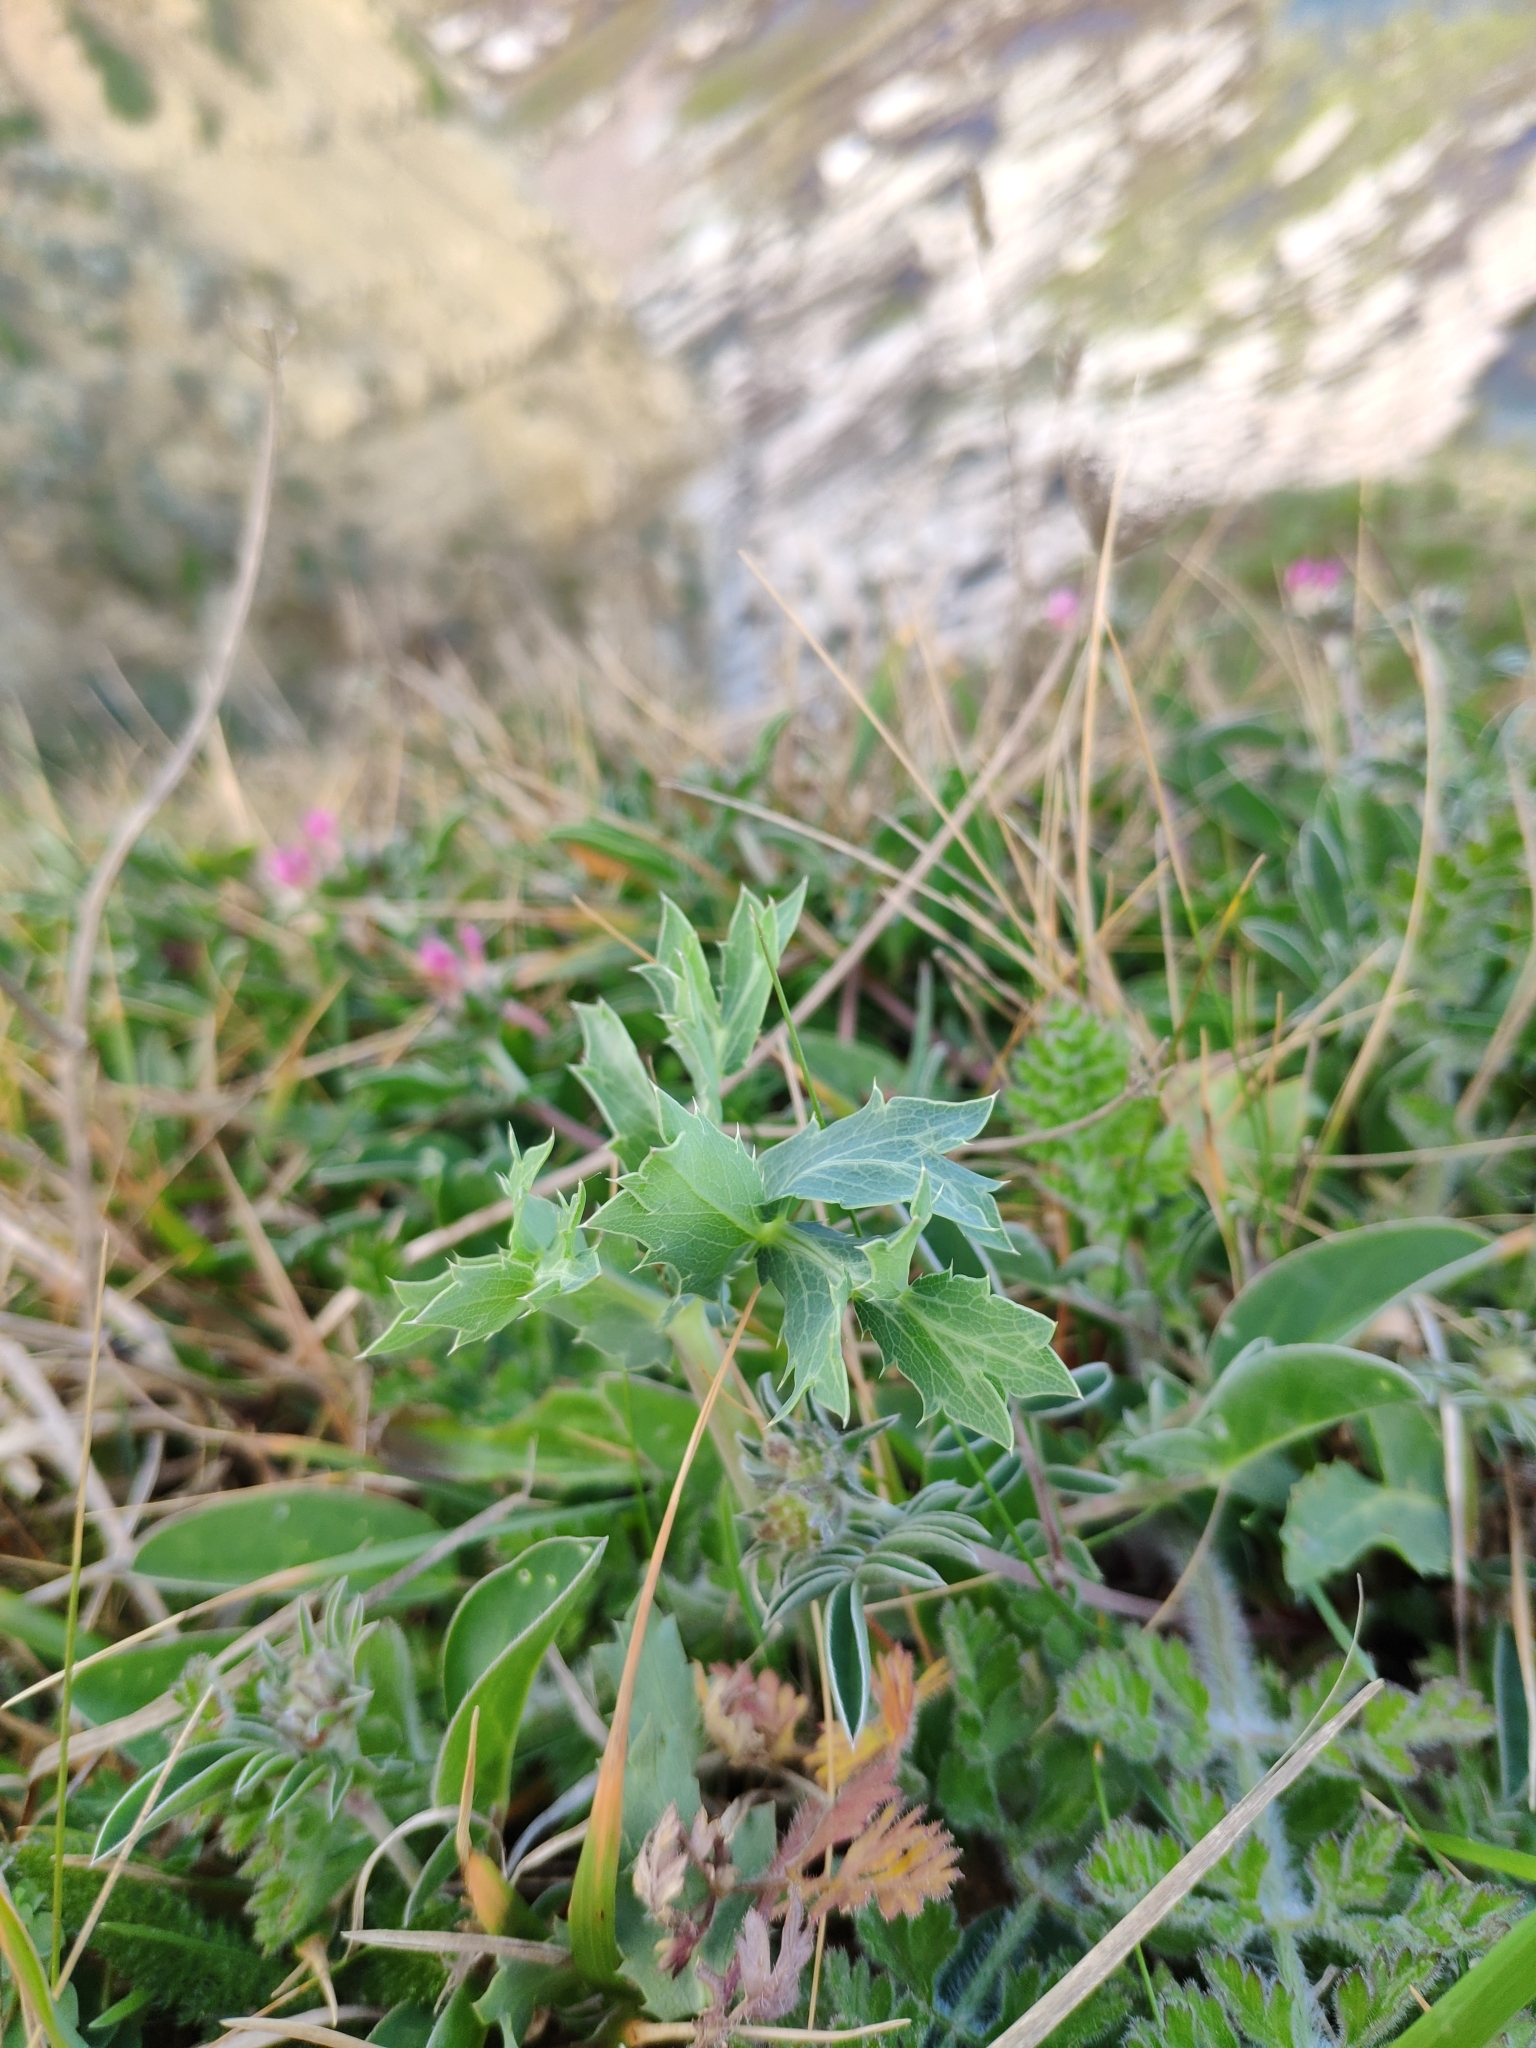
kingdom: Plantae
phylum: Tracheophyta
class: Magnoliopsida
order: Apiales
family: Apiaceae
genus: Eryngium
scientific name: Eryngium campestre
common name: Field eryngo
